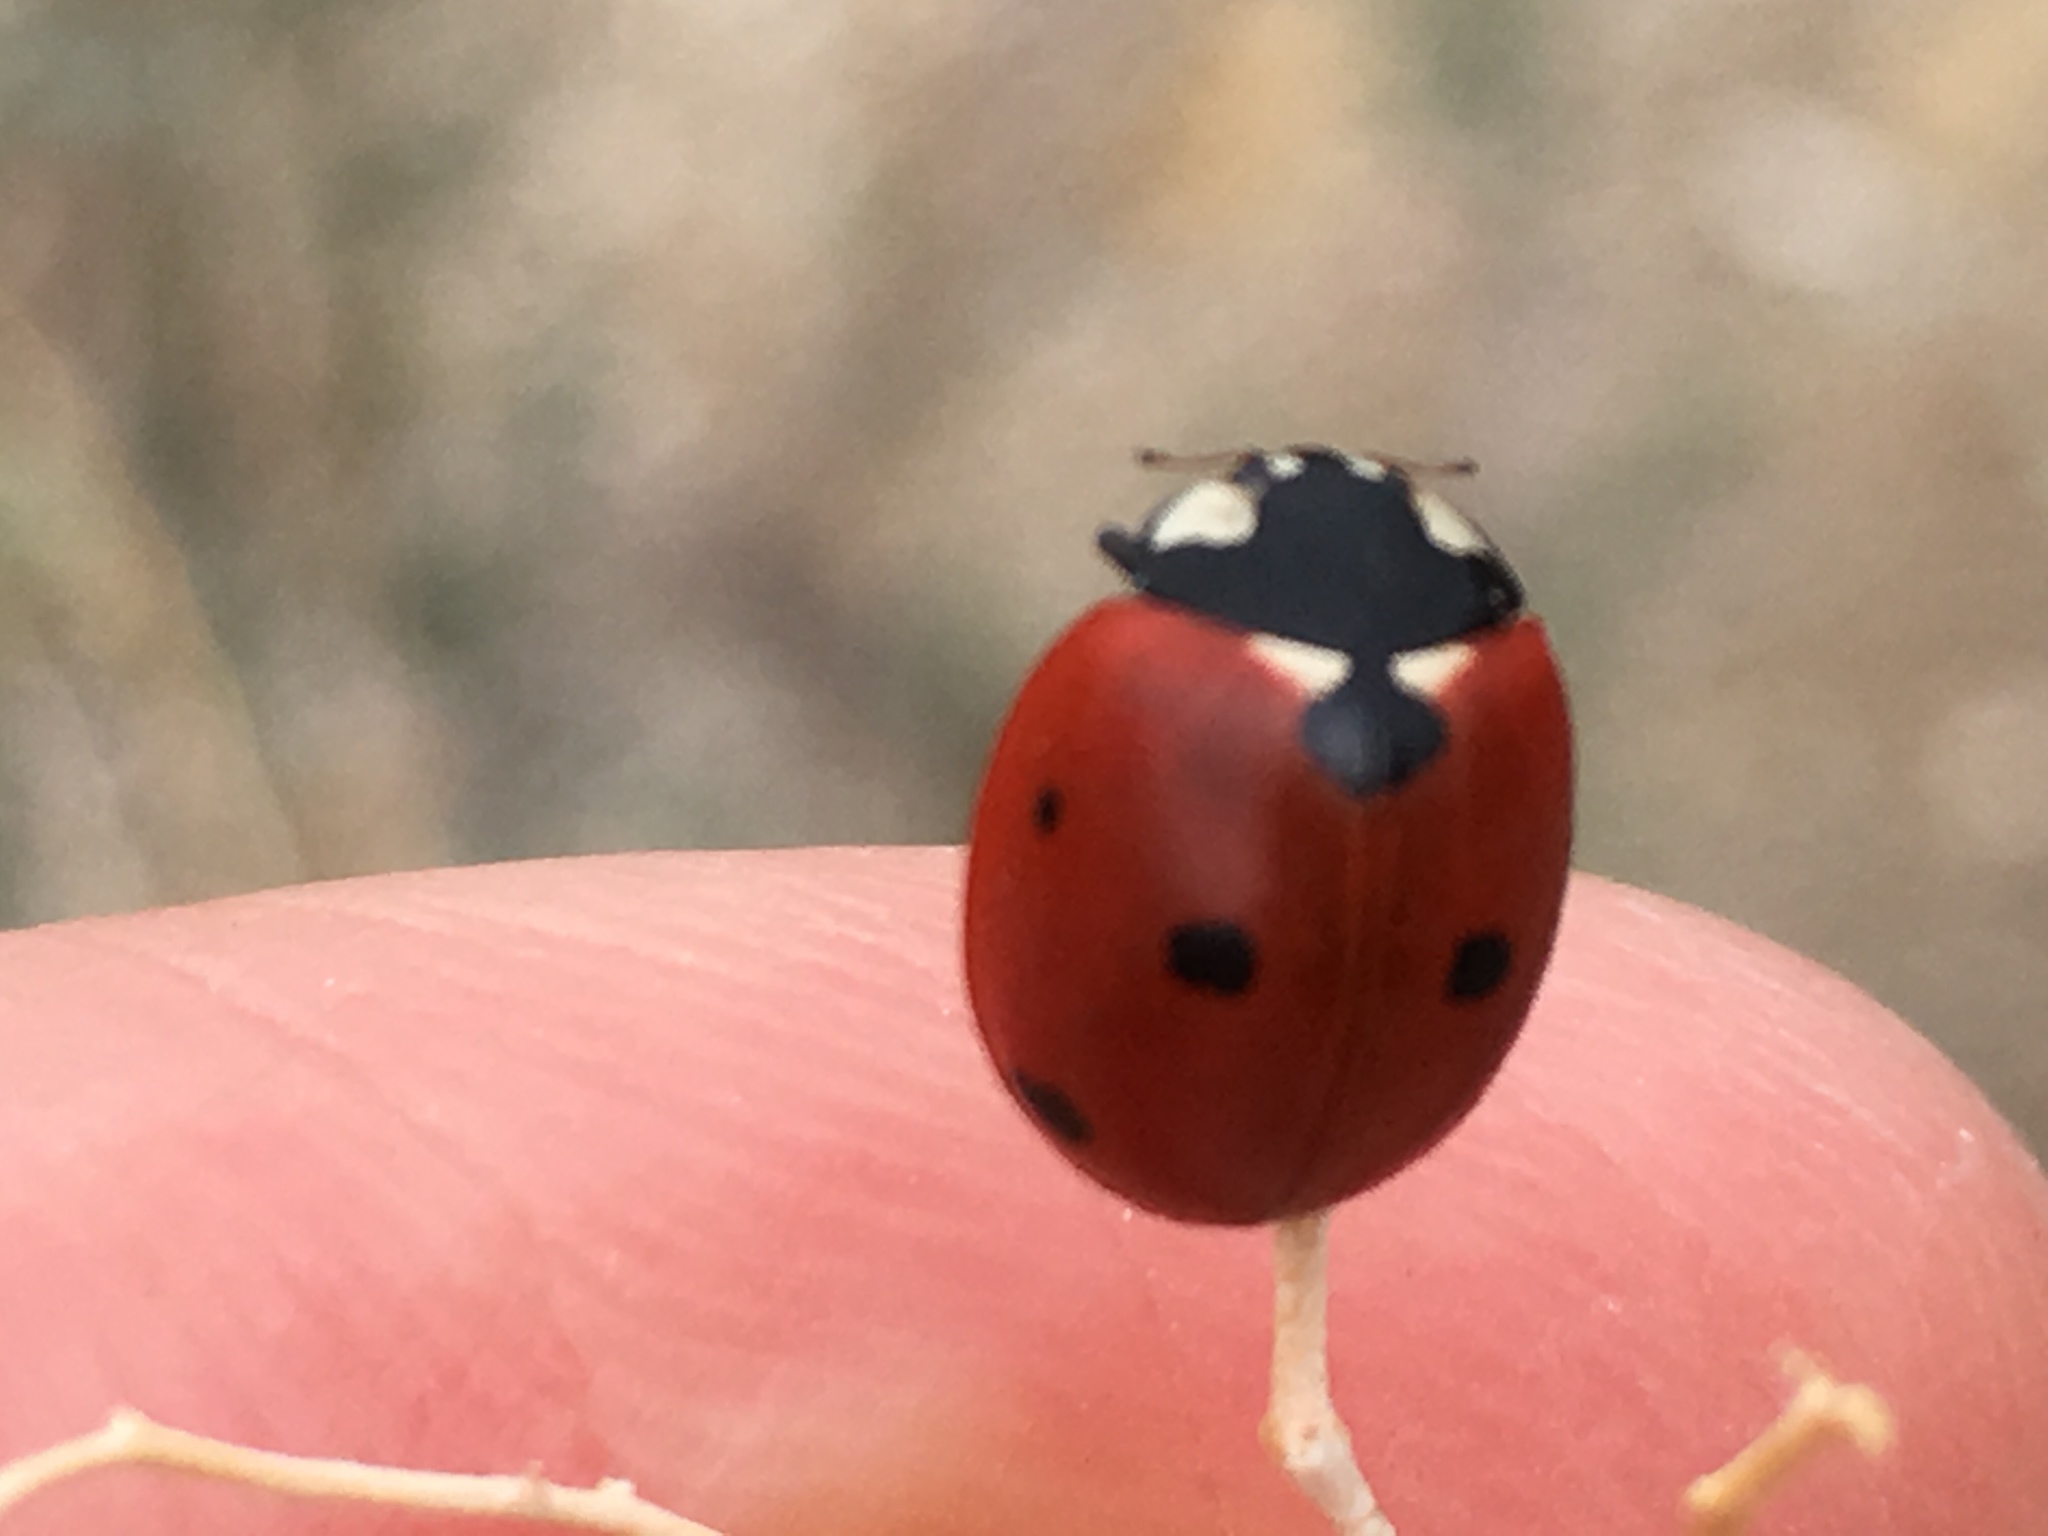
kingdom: Animalia
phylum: Arthropoda
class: Insecta
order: Coleoptera
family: Coccinellidae
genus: Coccinella
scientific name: Coccinella septempunctata
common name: Sevenspotted lady beetle
